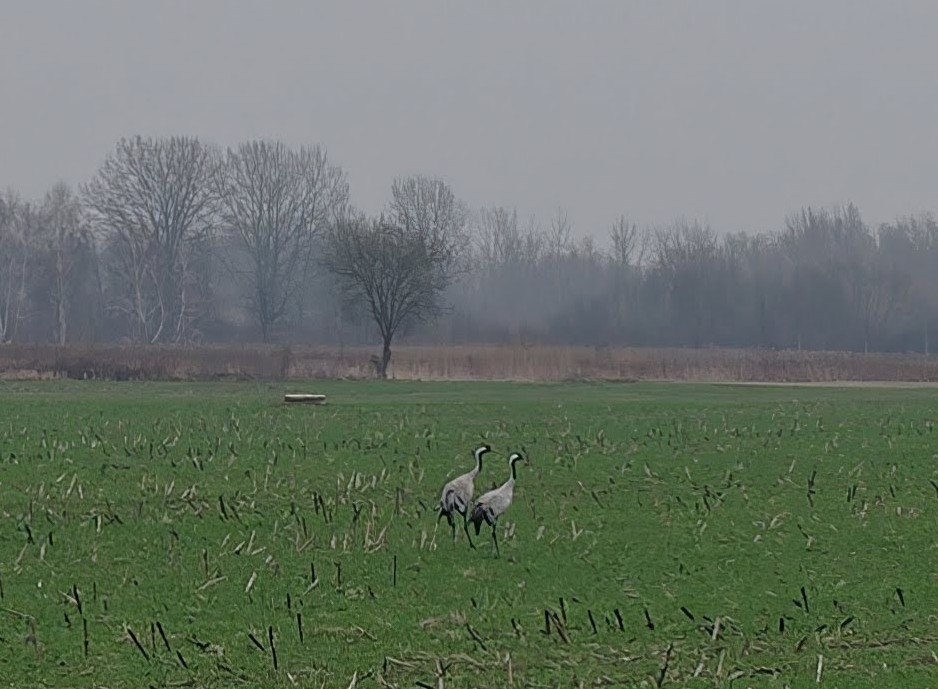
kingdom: Animalia
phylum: Chordata
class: Aves
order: Gruiformes
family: Gruidae
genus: Grus
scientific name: Grus grus
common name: Common crane
